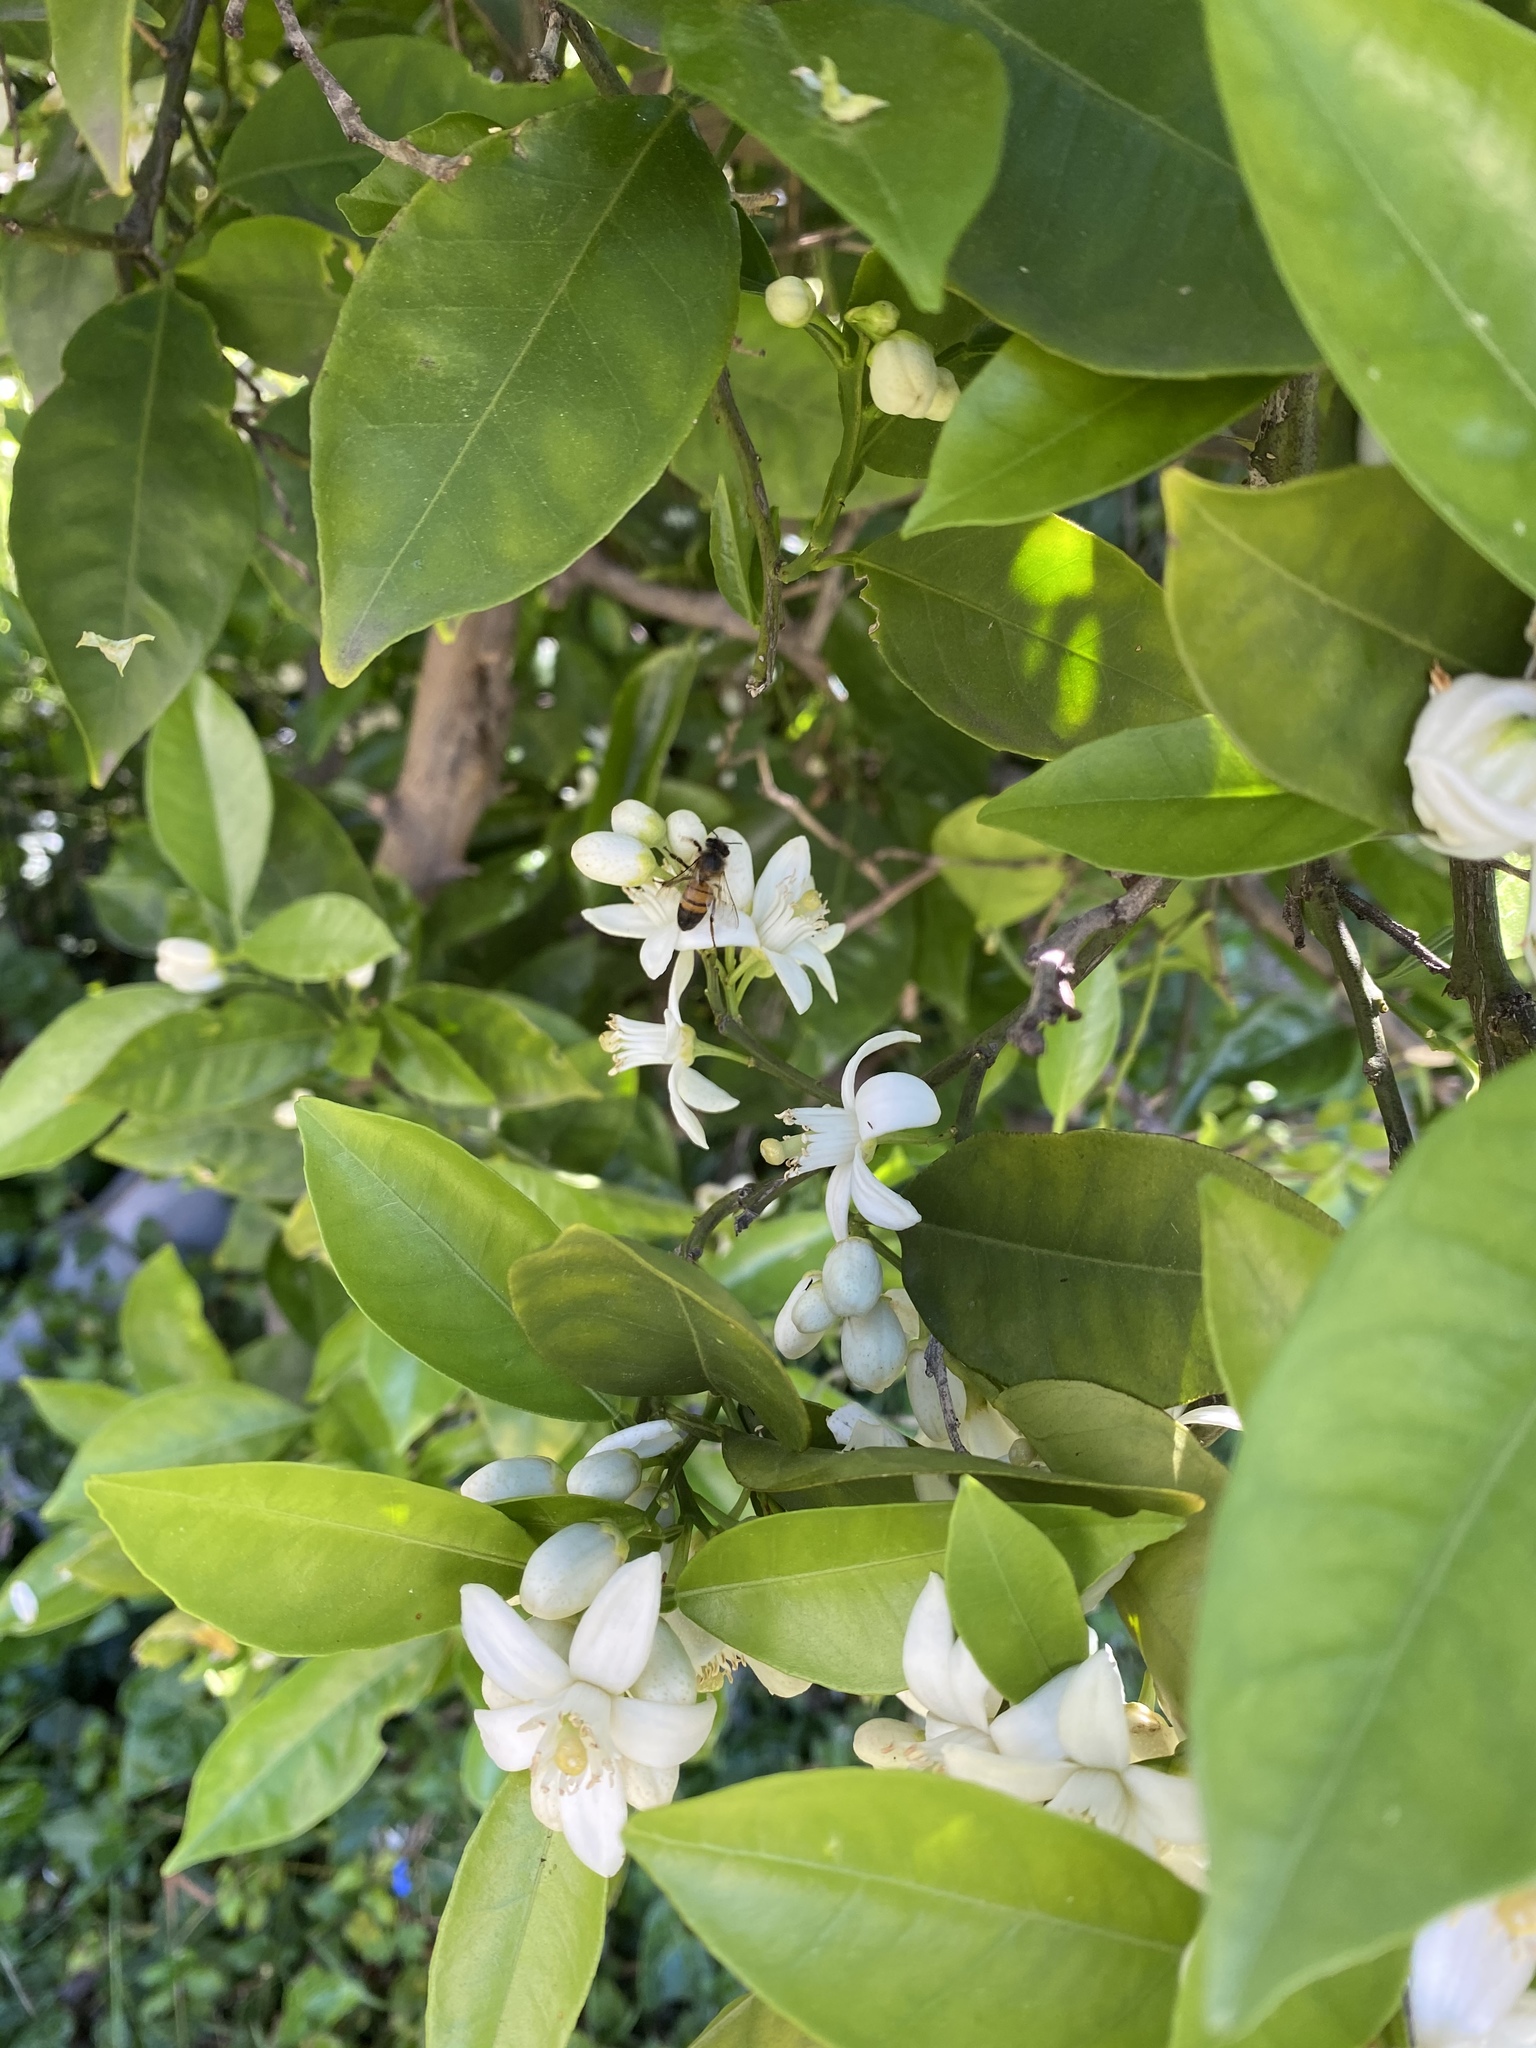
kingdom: Animalia
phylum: Arthropoda
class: Insecta
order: Hymenoptera
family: Apidae
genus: Apis
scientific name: Apis mellifera
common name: Honey bee
